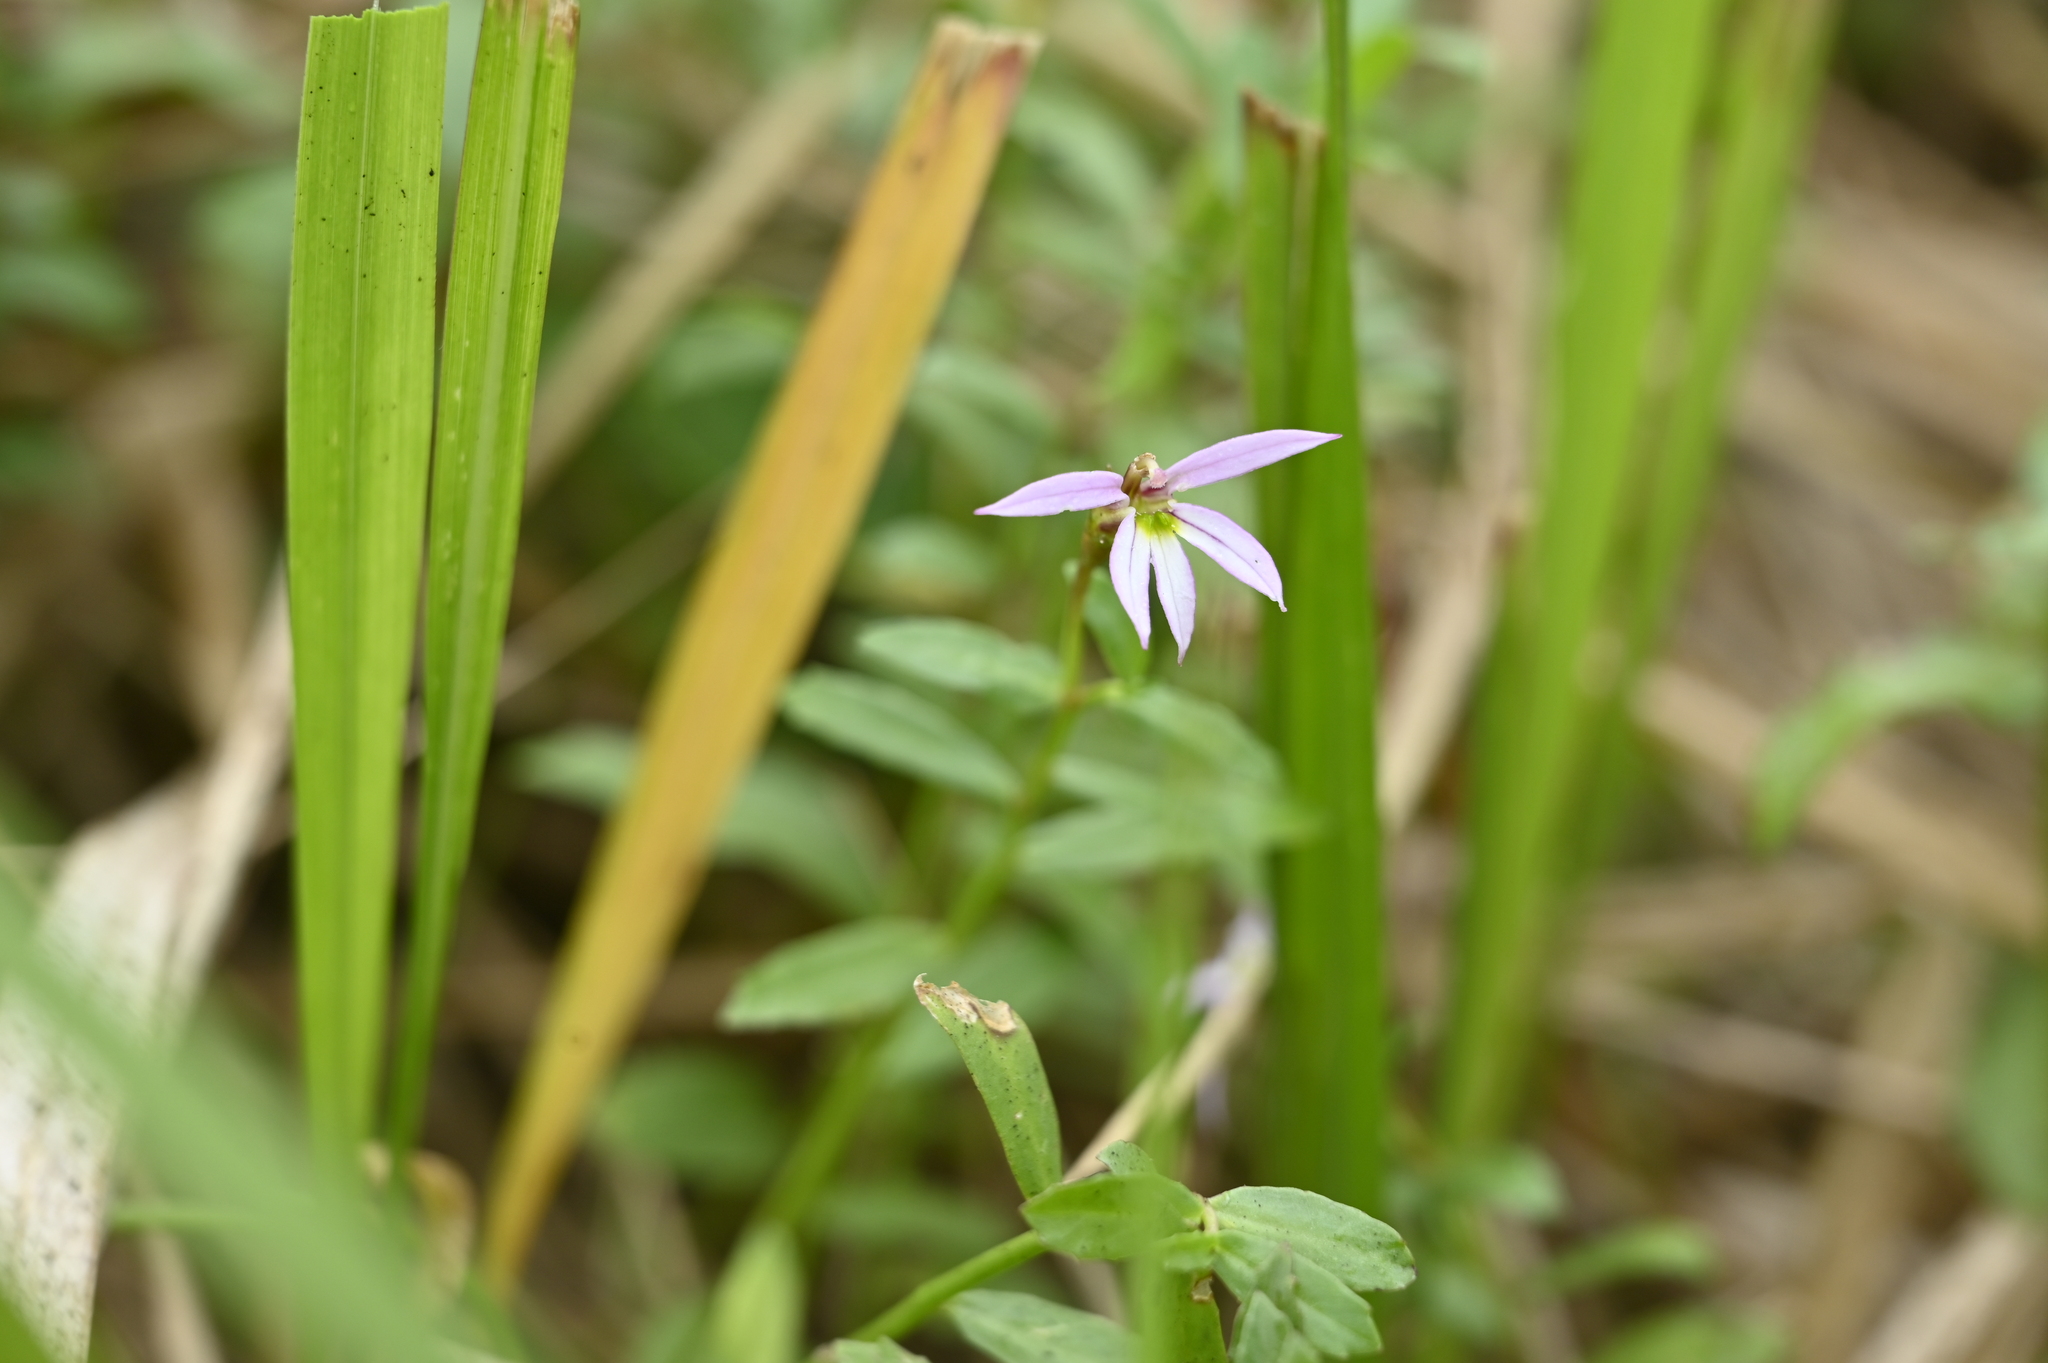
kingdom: Plantae
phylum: Tracheophyta
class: Magnoliopsida
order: Asterales
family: Campanulaceae
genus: Lobelia
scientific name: Lobelia chinensis
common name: Chinese lobelia
